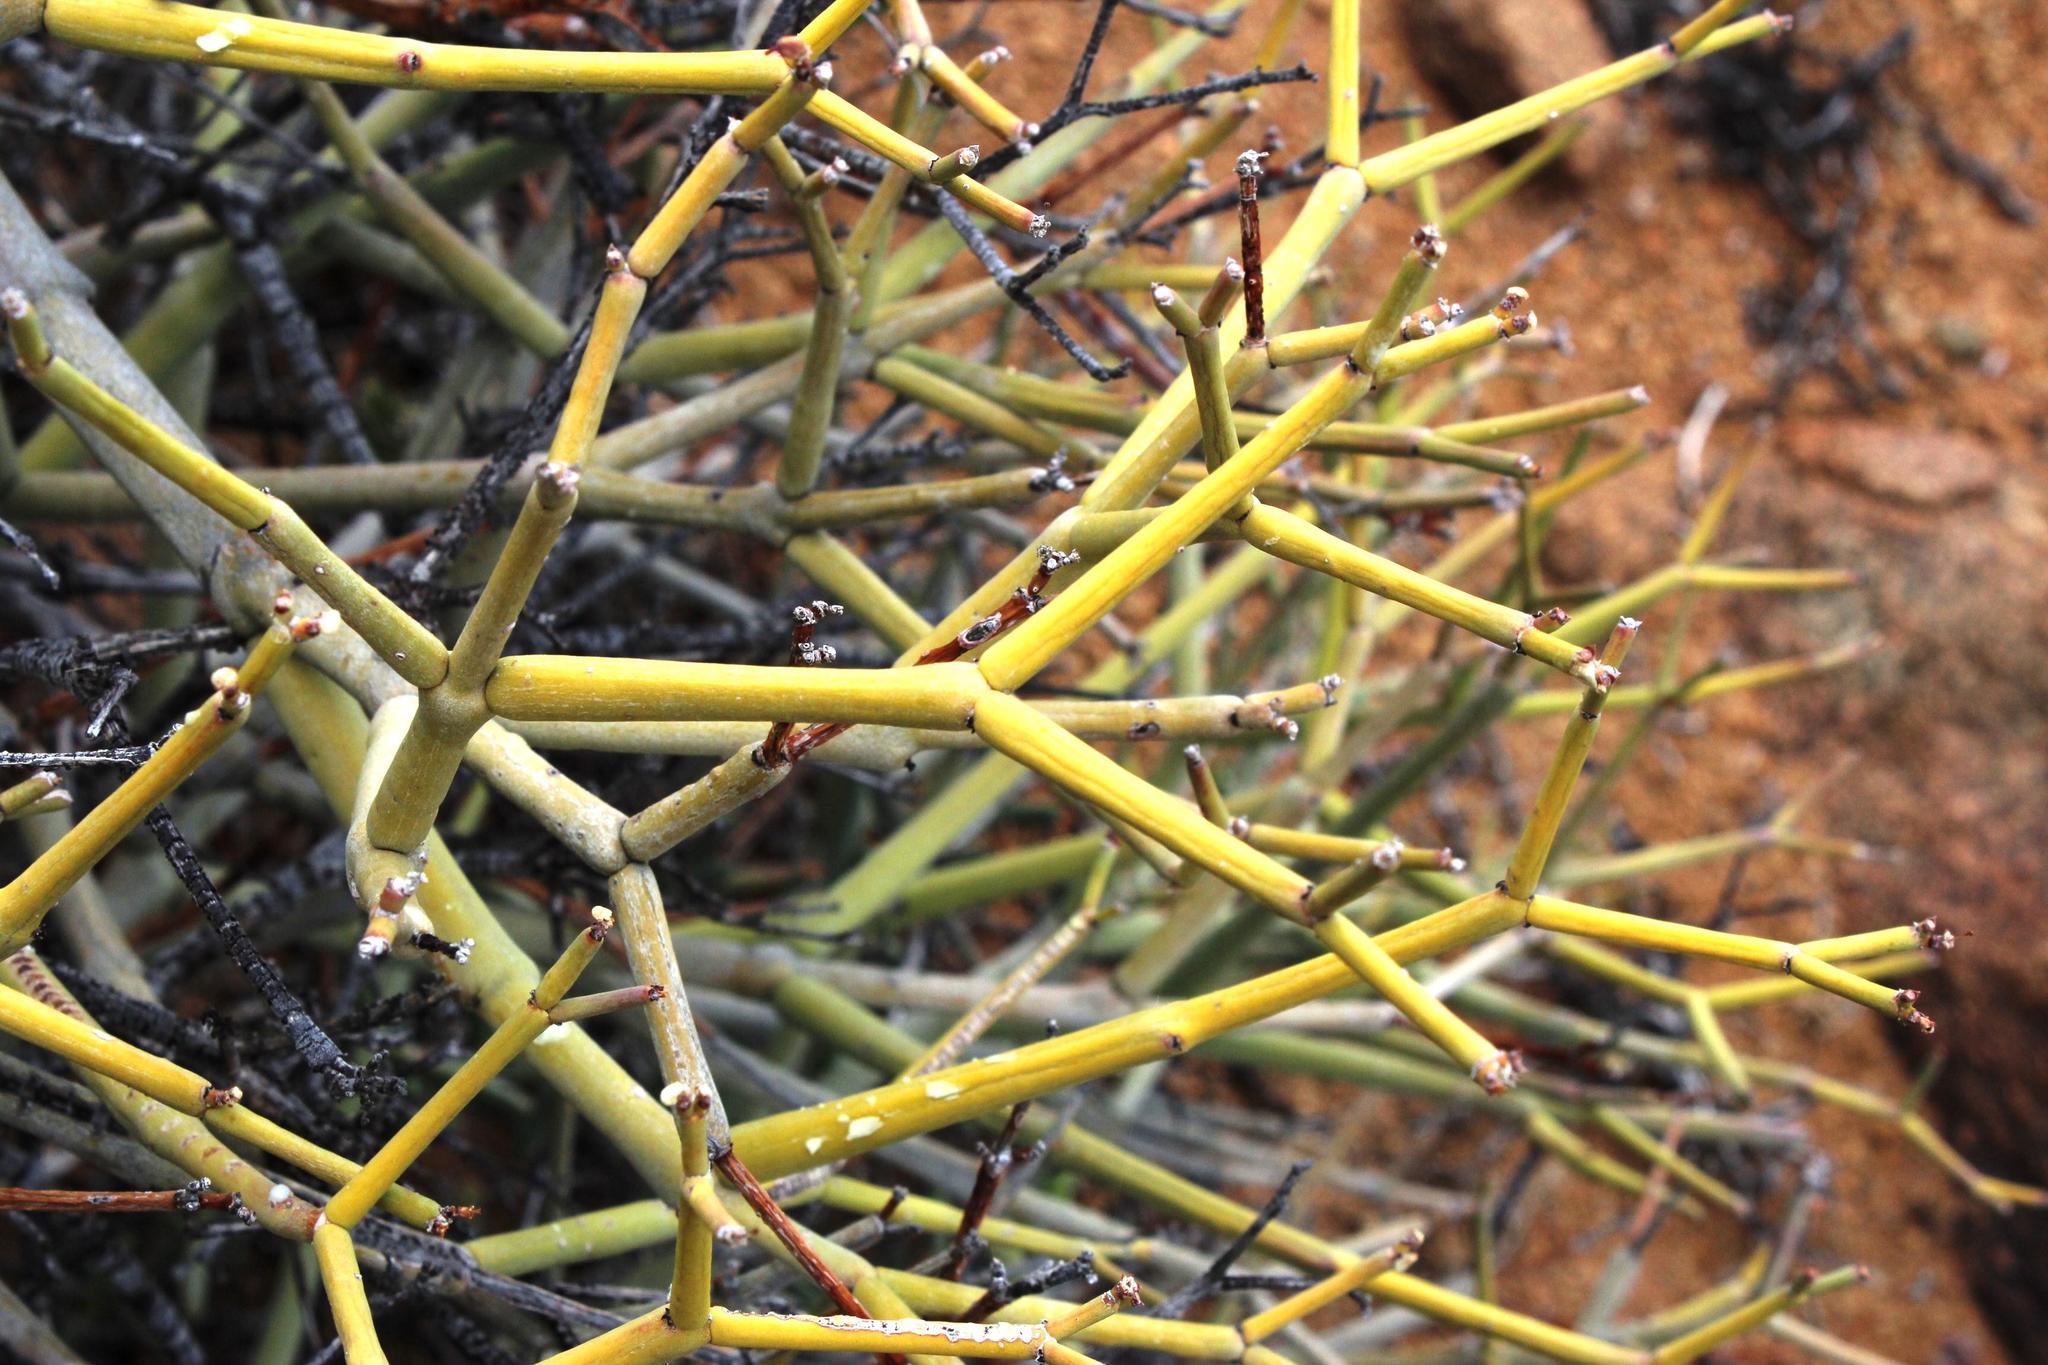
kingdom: Plantae
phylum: Tracheophyta
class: Magnoliopsida
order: Malpighiales
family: Euphorbiaceae
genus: Euphorbia
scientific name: Euphorbia rhombifolia
